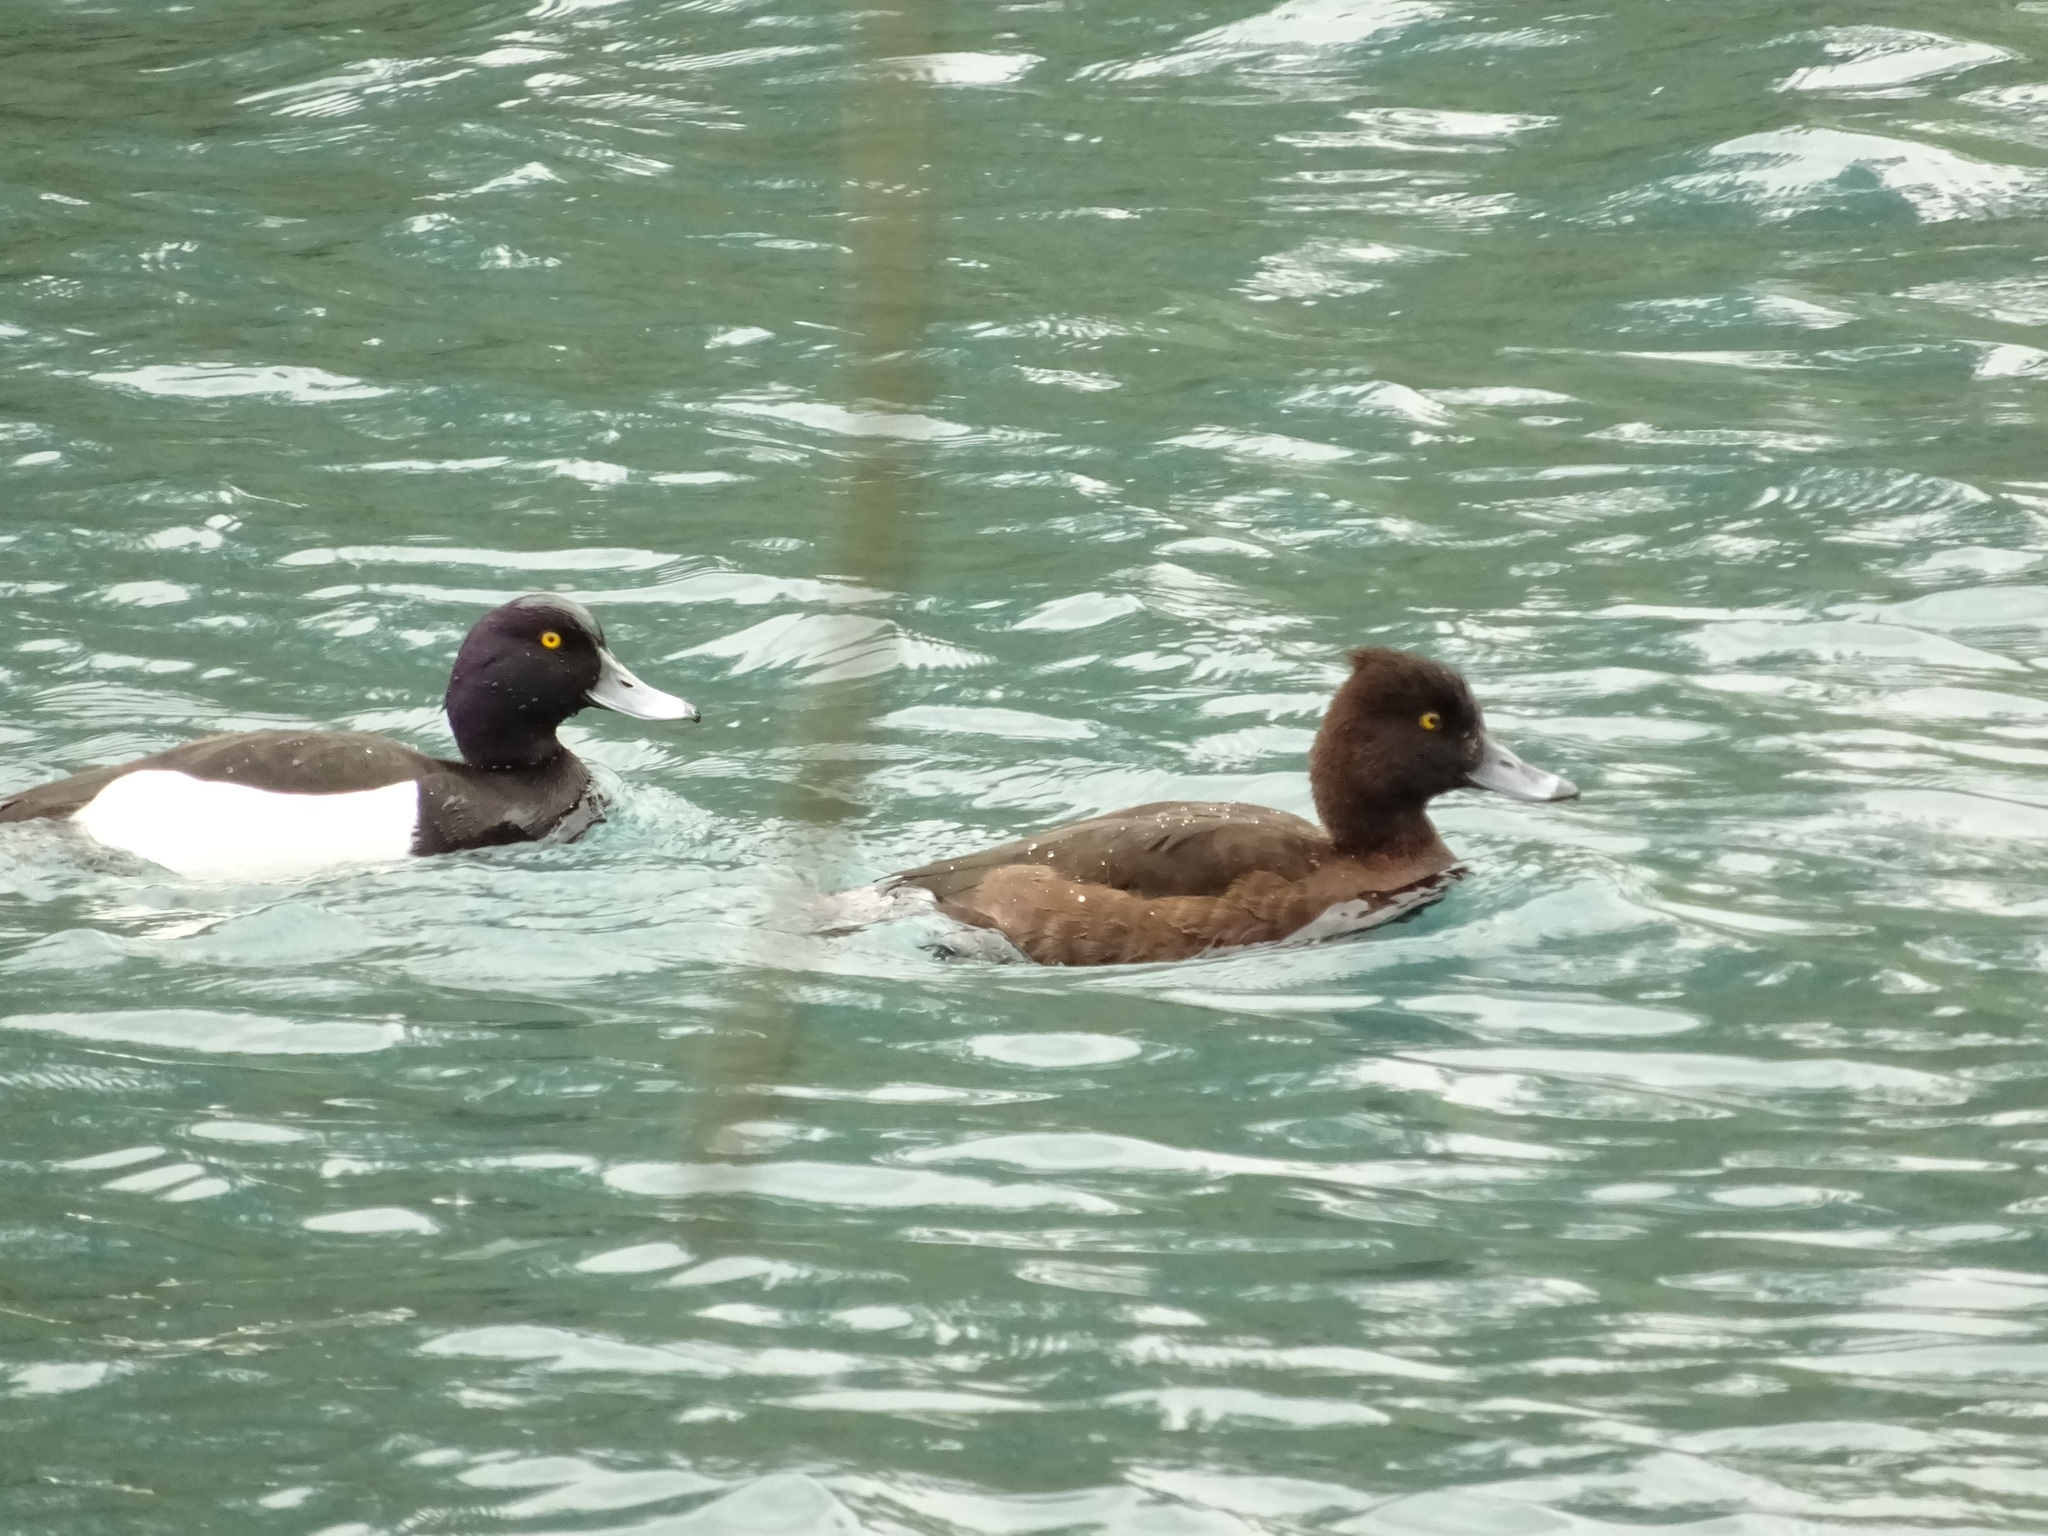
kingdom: Animalia
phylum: Chordata
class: Aves
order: Anseriformes
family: Anatidae
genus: Aythya
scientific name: Aythya fuligula
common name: Tufted duck
